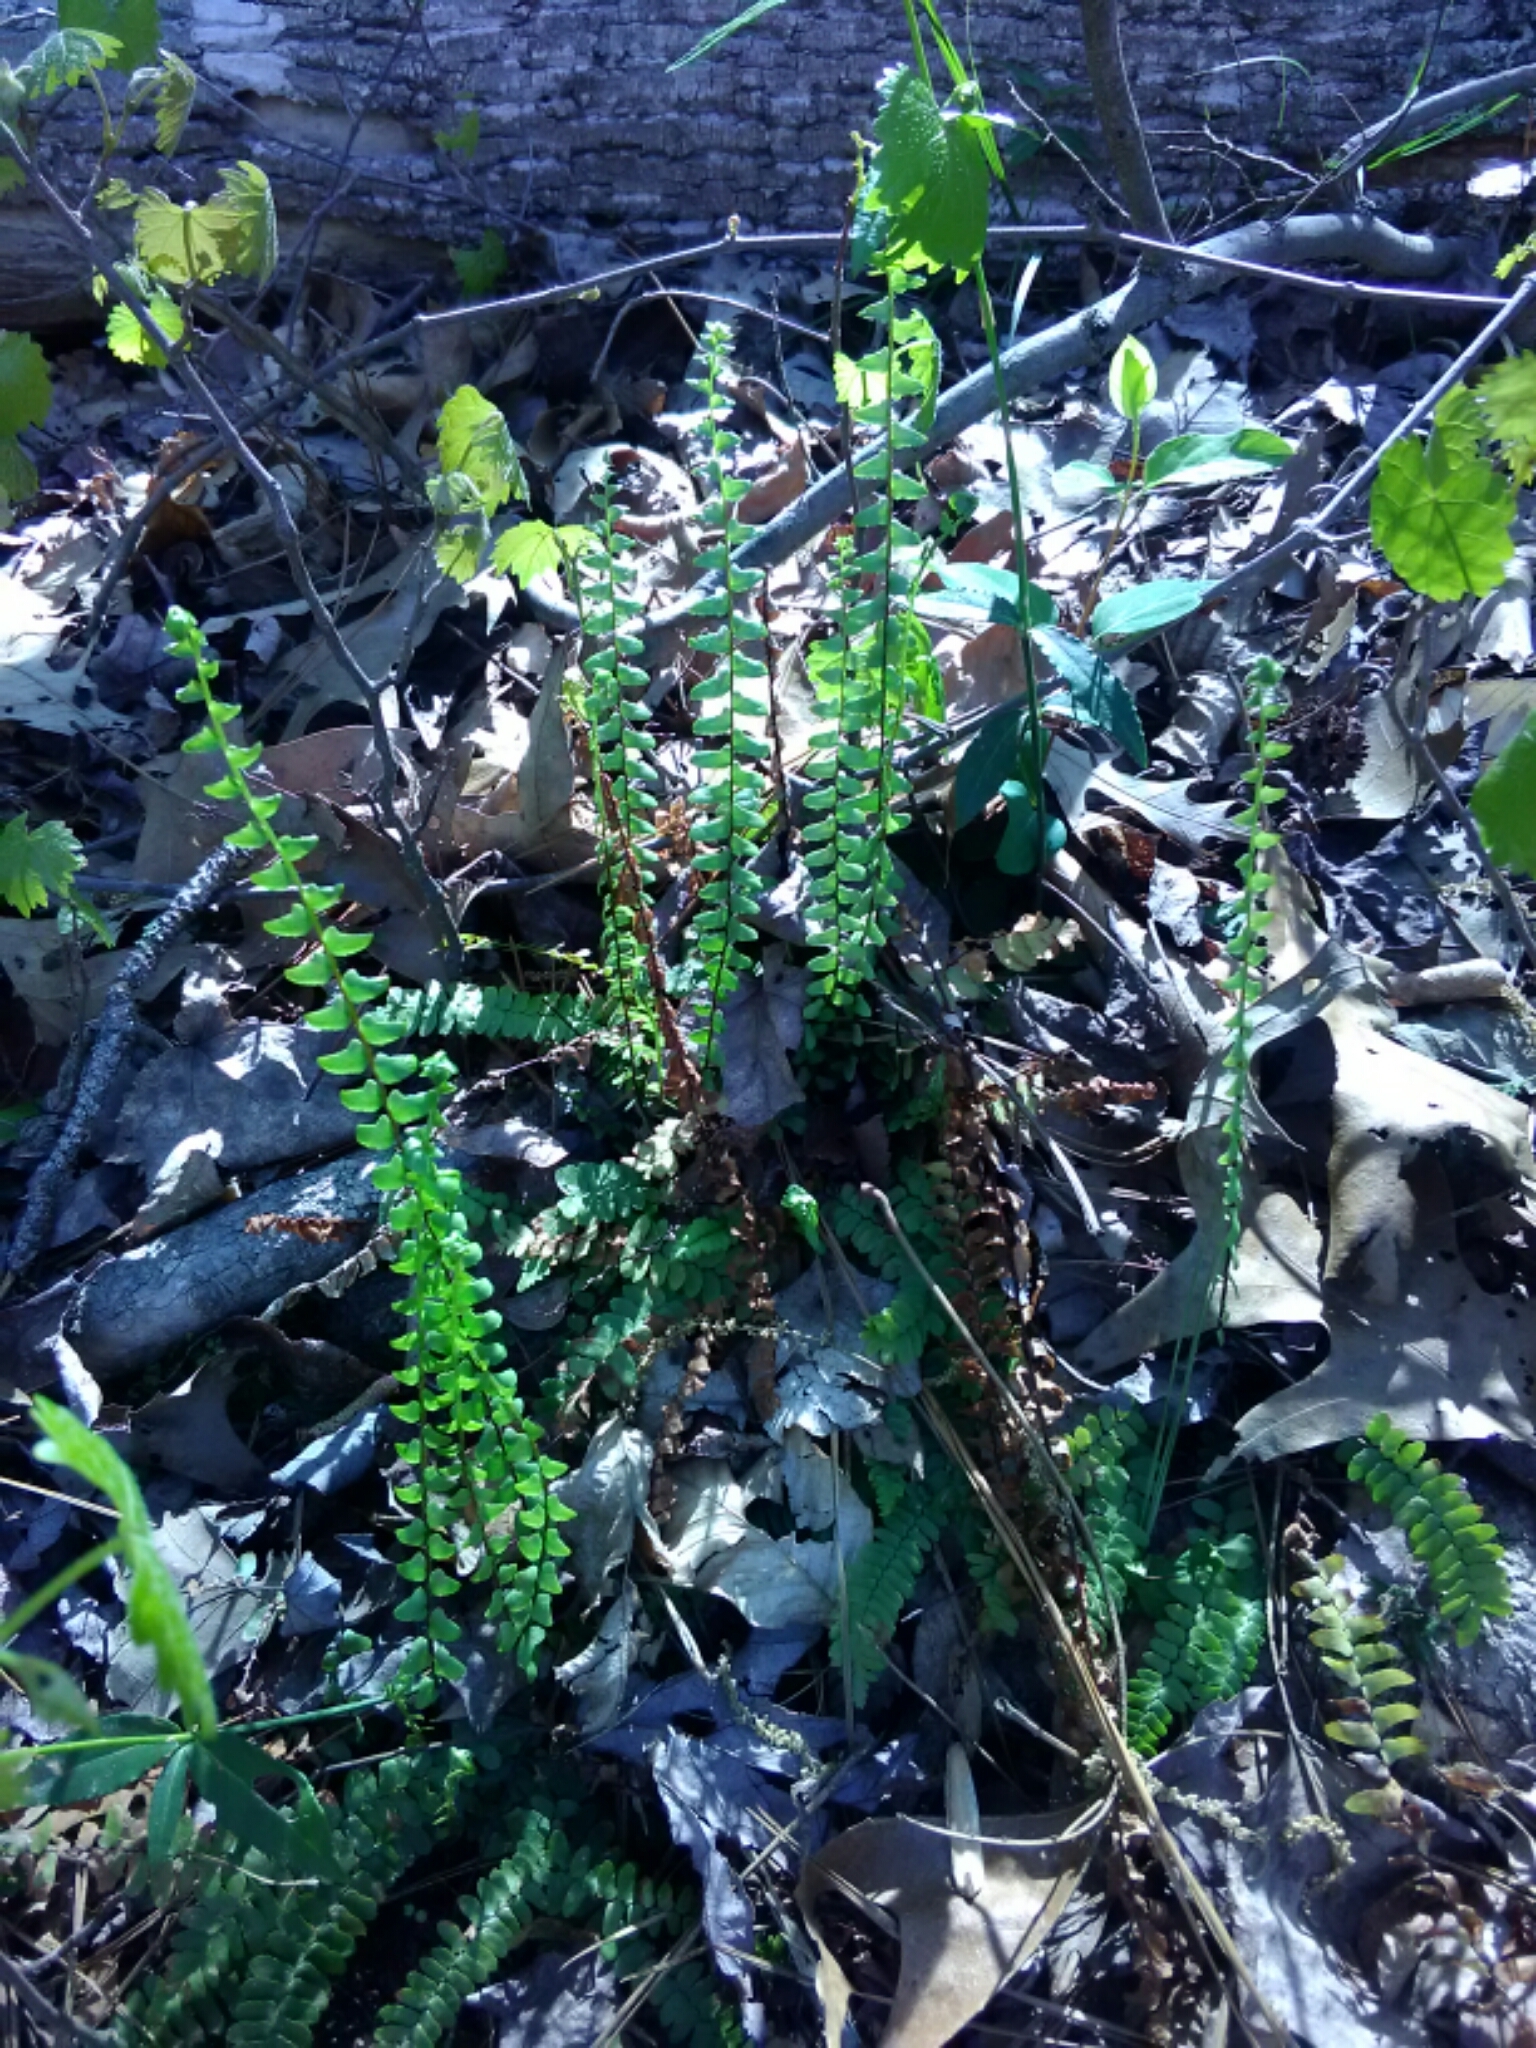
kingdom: Plantae
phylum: Tracheophyta
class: Polypodiopsida
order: Polypodiales
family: Aspleniaceae
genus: Asplenium
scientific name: Asplenium platyneuron
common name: Ebony spleenwort
